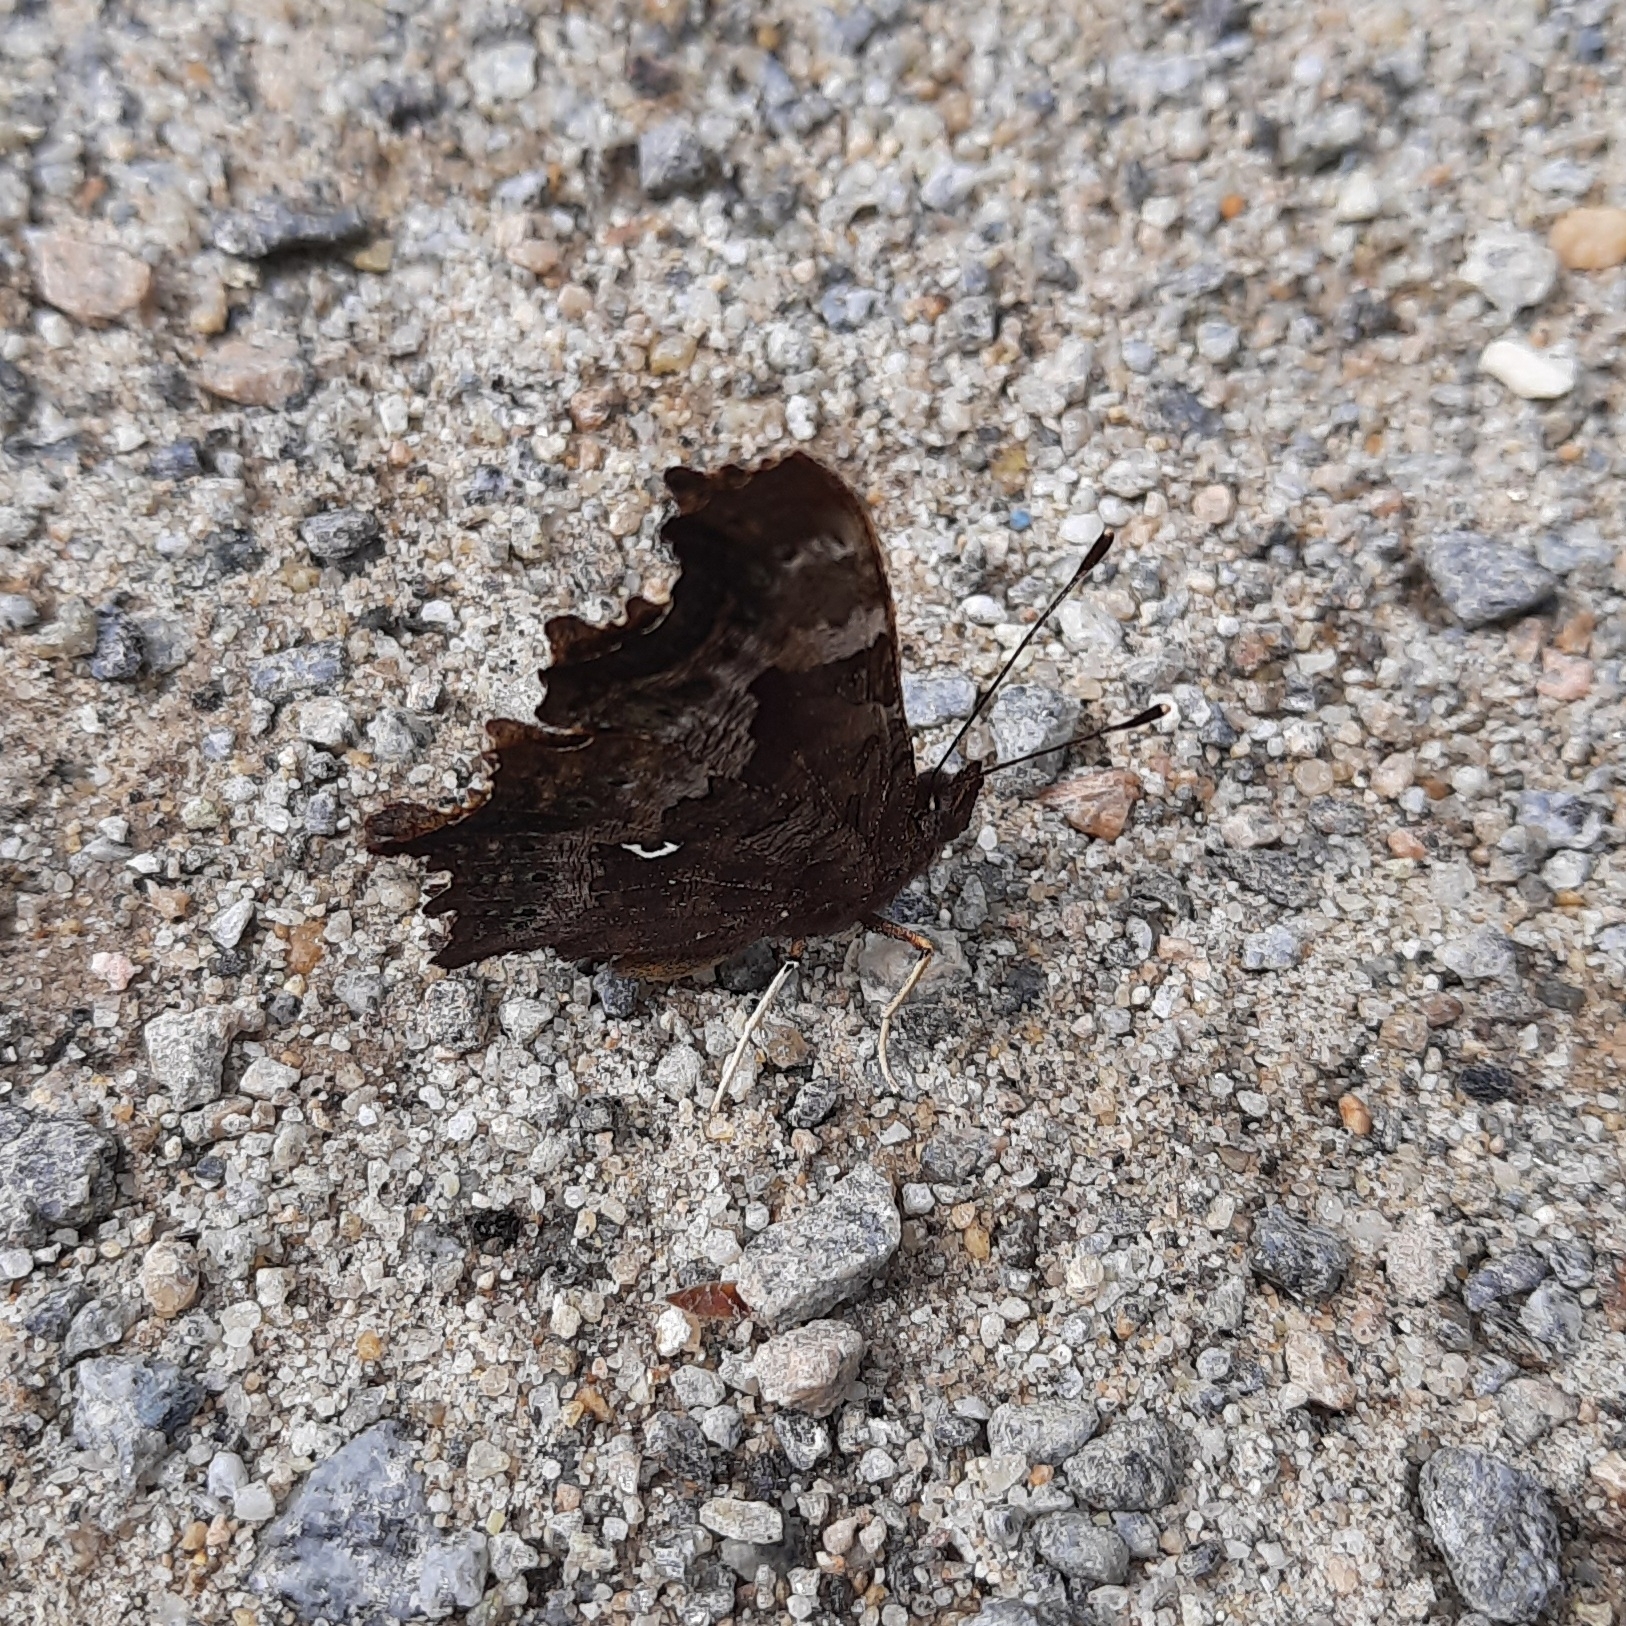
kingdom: Animalia
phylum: Arthropoda
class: Insecta
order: Lepidoptera
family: Nymphalidae
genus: Polygonia
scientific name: Polygonia c-album
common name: Comma
